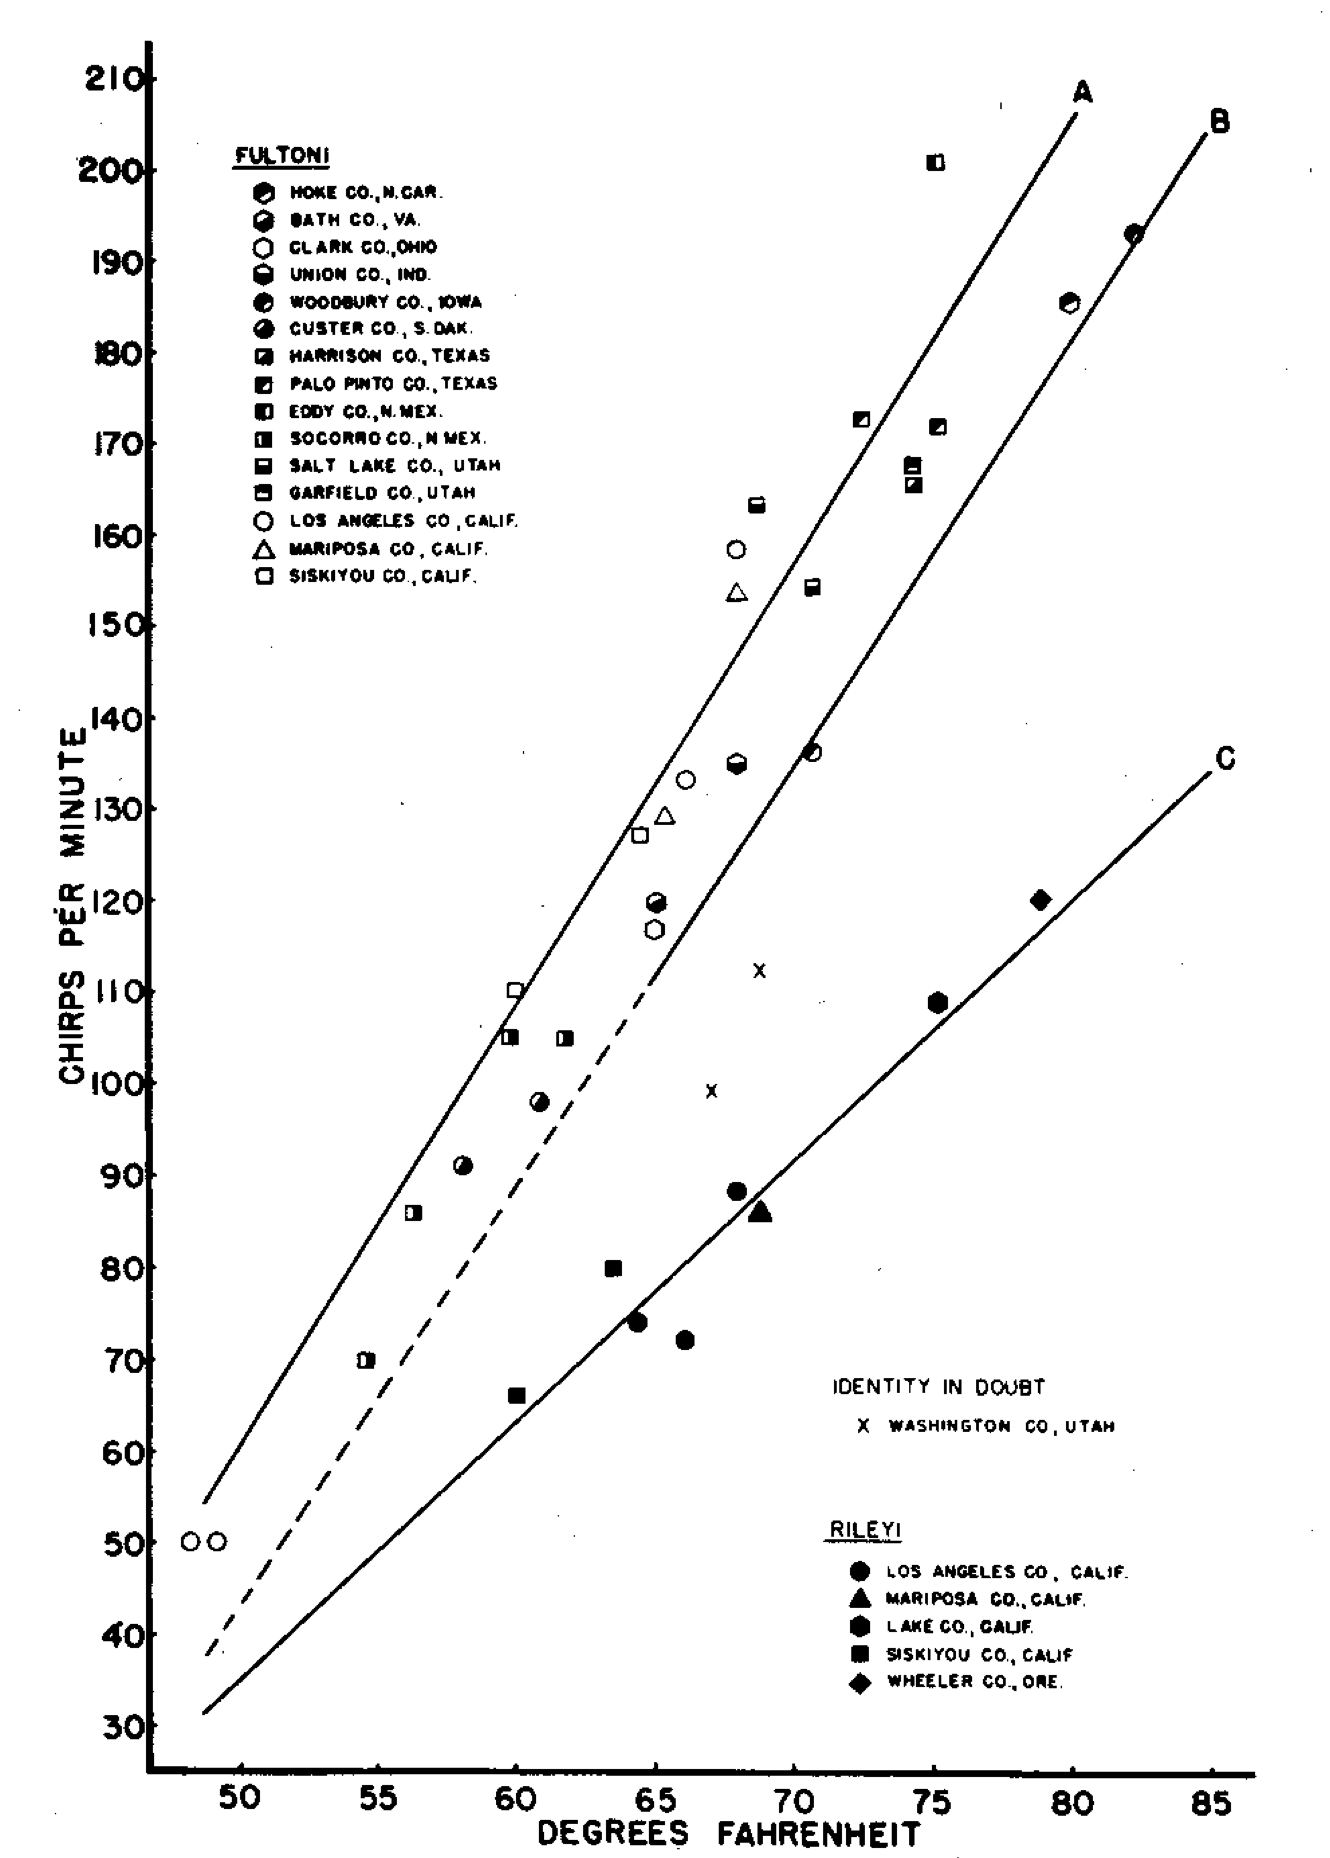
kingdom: Animalia
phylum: Arthropoda
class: Insecta
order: Orthoptera
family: Gryllidae
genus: Oecanthus
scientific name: Oecanthus fultoni
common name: Snowy tree cricket
